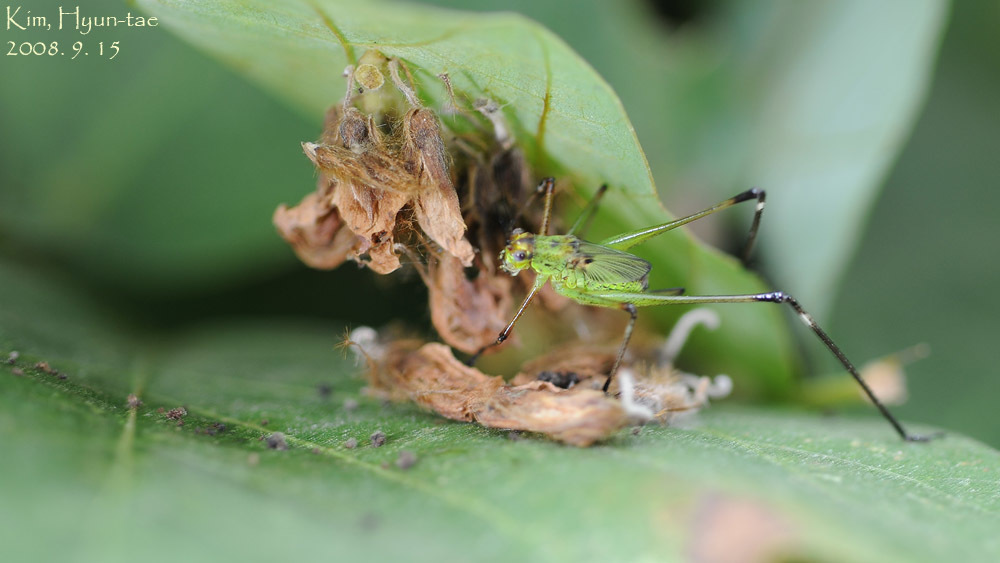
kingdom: Animalia
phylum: Arthropoda
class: Insecta
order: Orthoptera
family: Tettigoniidae
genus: Phaneroptera
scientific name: Phaneroptera nigroantennata
